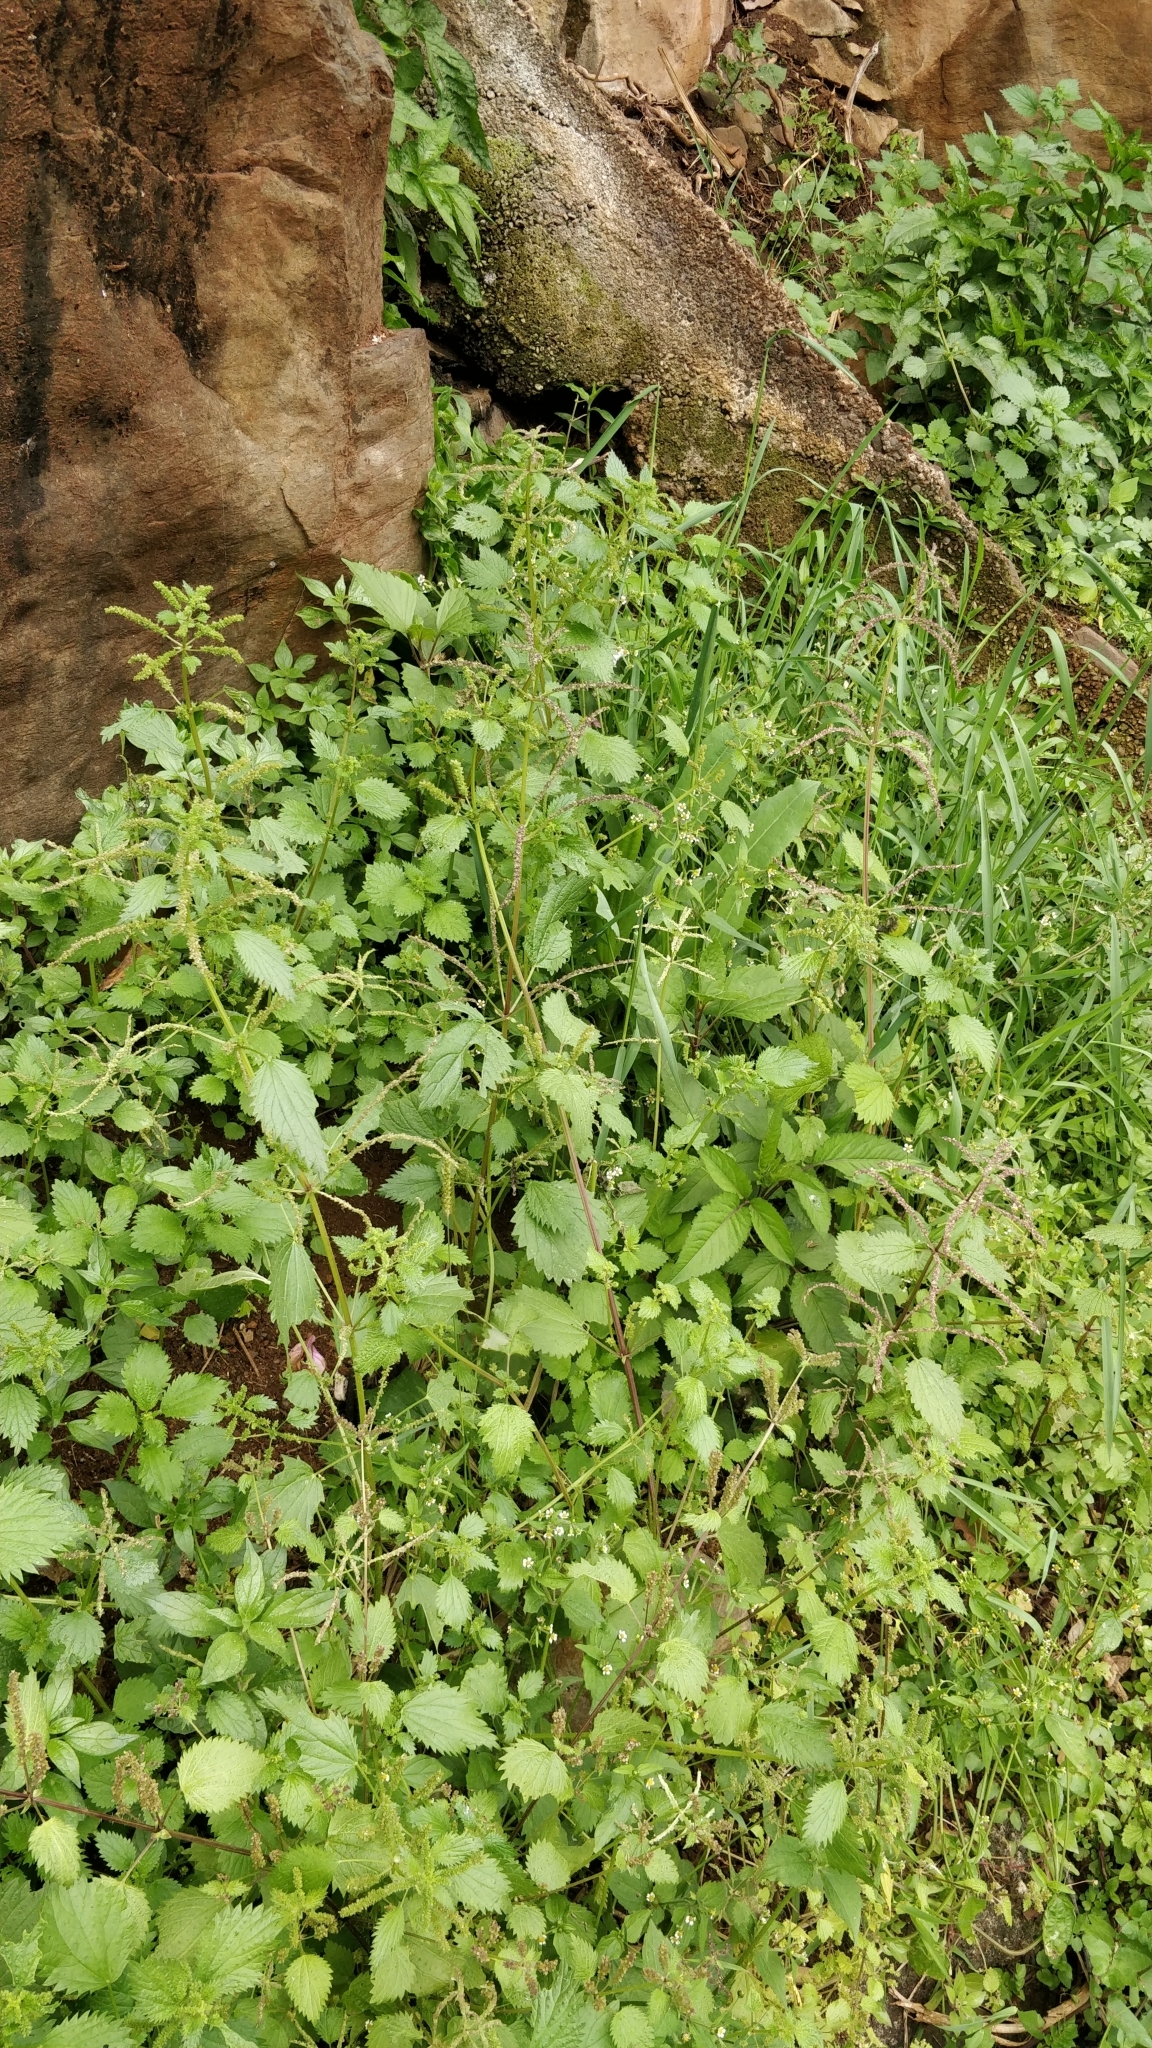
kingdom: Plantae
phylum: Tracheophyta
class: Magnoliopsida
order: Rosales
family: Urticaceae
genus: Urtica
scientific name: Urtica membranacea
